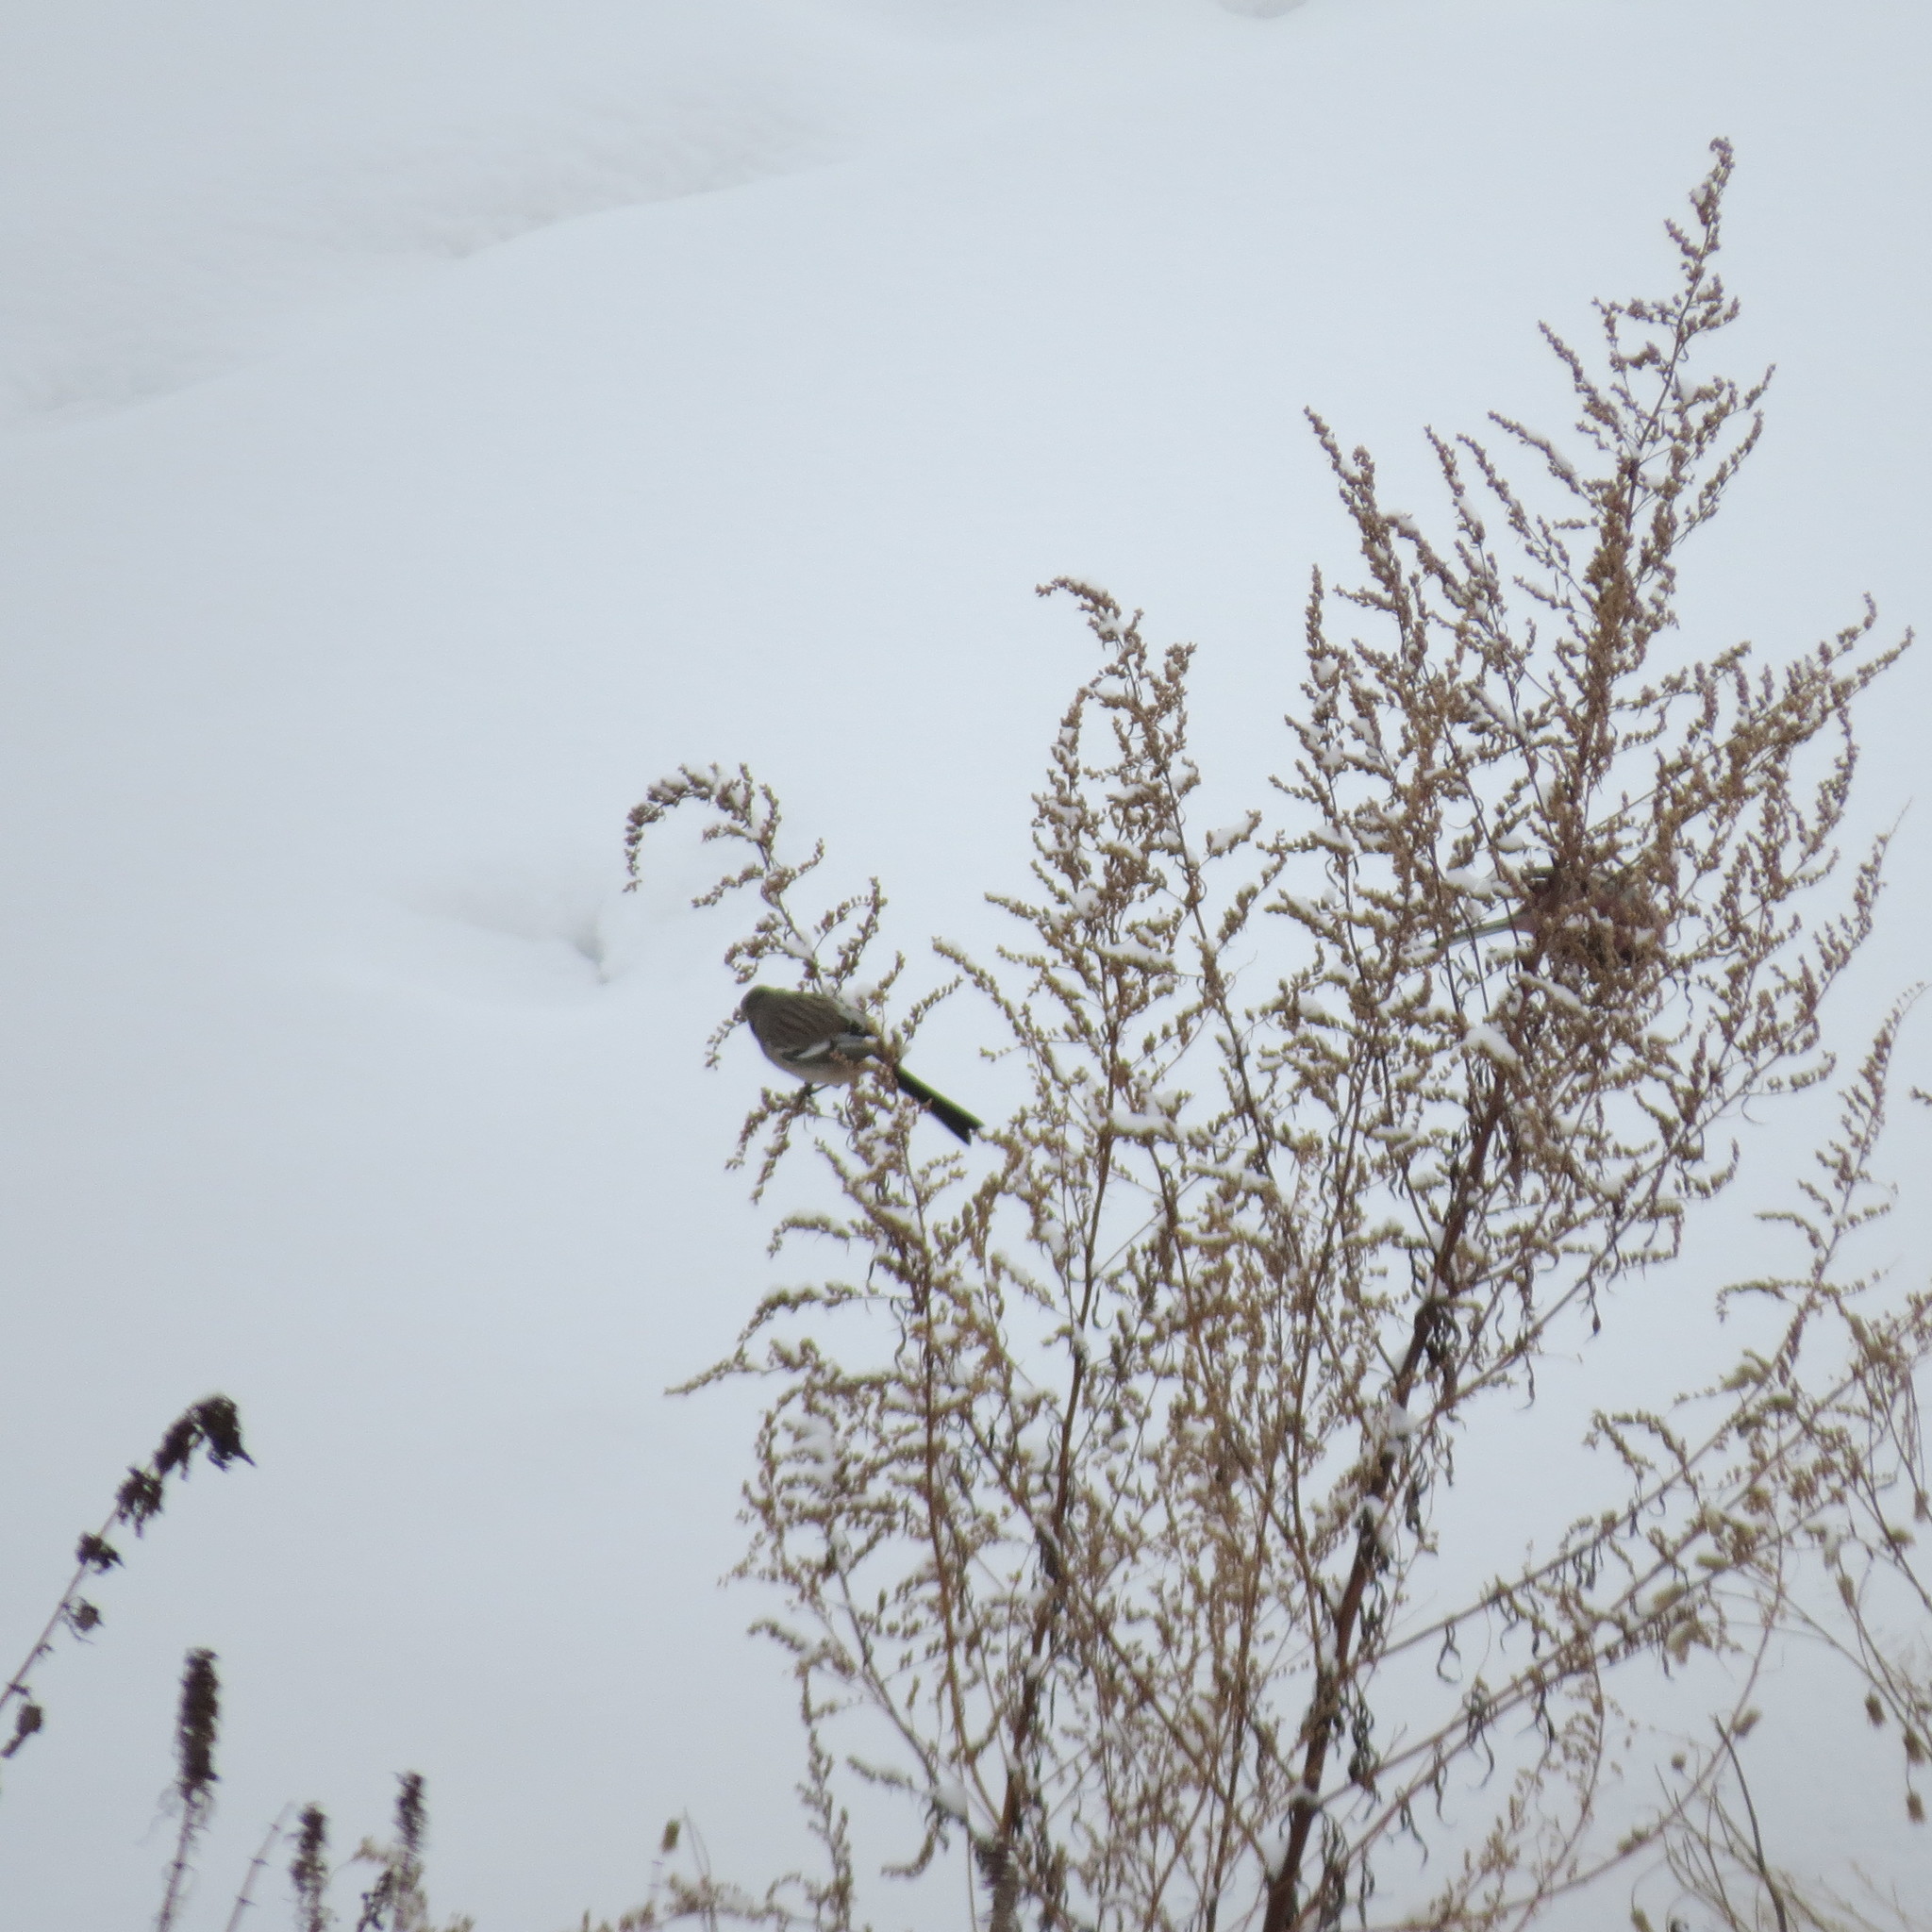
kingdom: Animalia
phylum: Chordata
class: Aves
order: Passeriformes
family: Fringillidae
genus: Carpodacus
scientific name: Carpodacus sibiricus
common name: Long-tailed rosefinch
